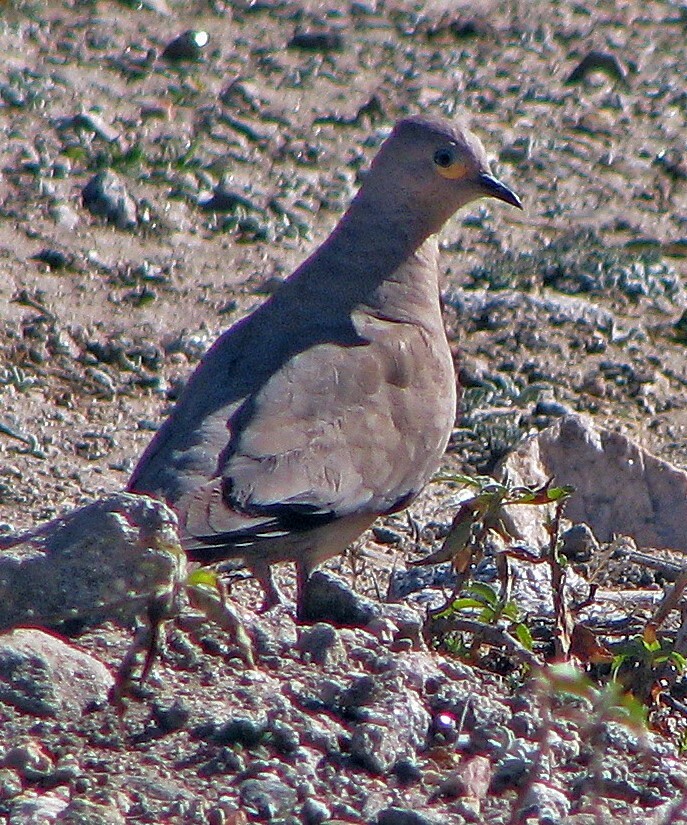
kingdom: Animalia
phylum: Chordata
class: Aves
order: Columbiformes
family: Columbidae
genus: Metriopelia
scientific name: Metriopelia melanoptera
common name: Black-winged ground dove
